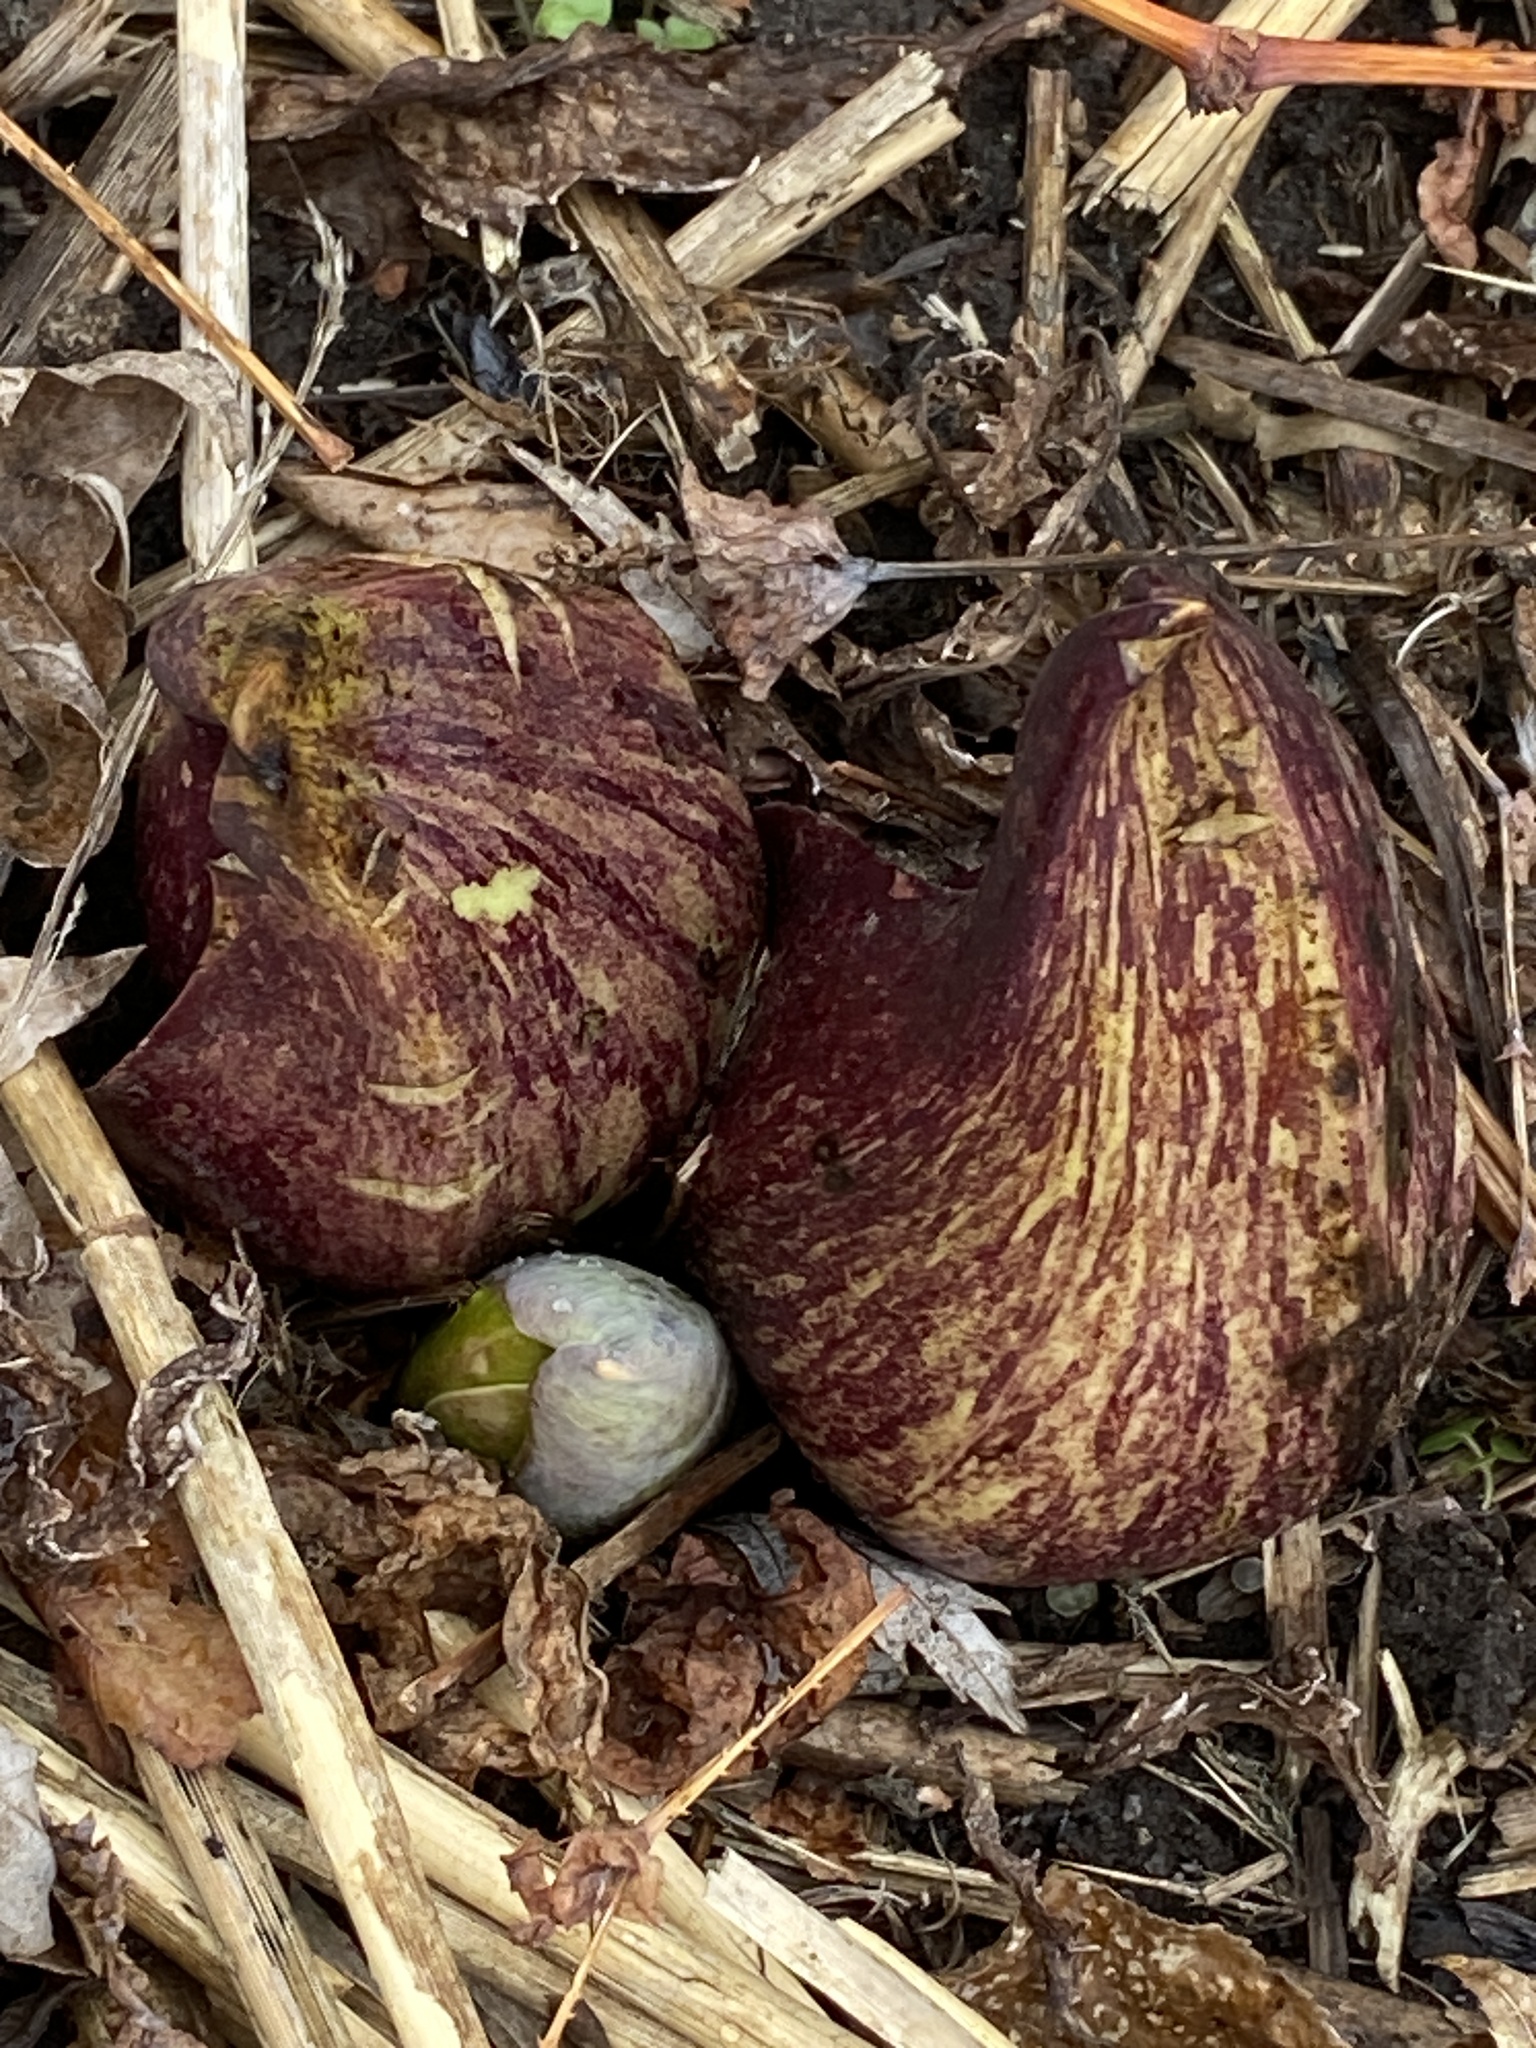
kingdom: Plantae
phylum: Tracheophyta
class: Liliopsida
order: Alismatales
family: Araceae
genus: Symplocarpus
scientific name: Symplocarpus foetidus
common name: Eastern skunk cabbage
